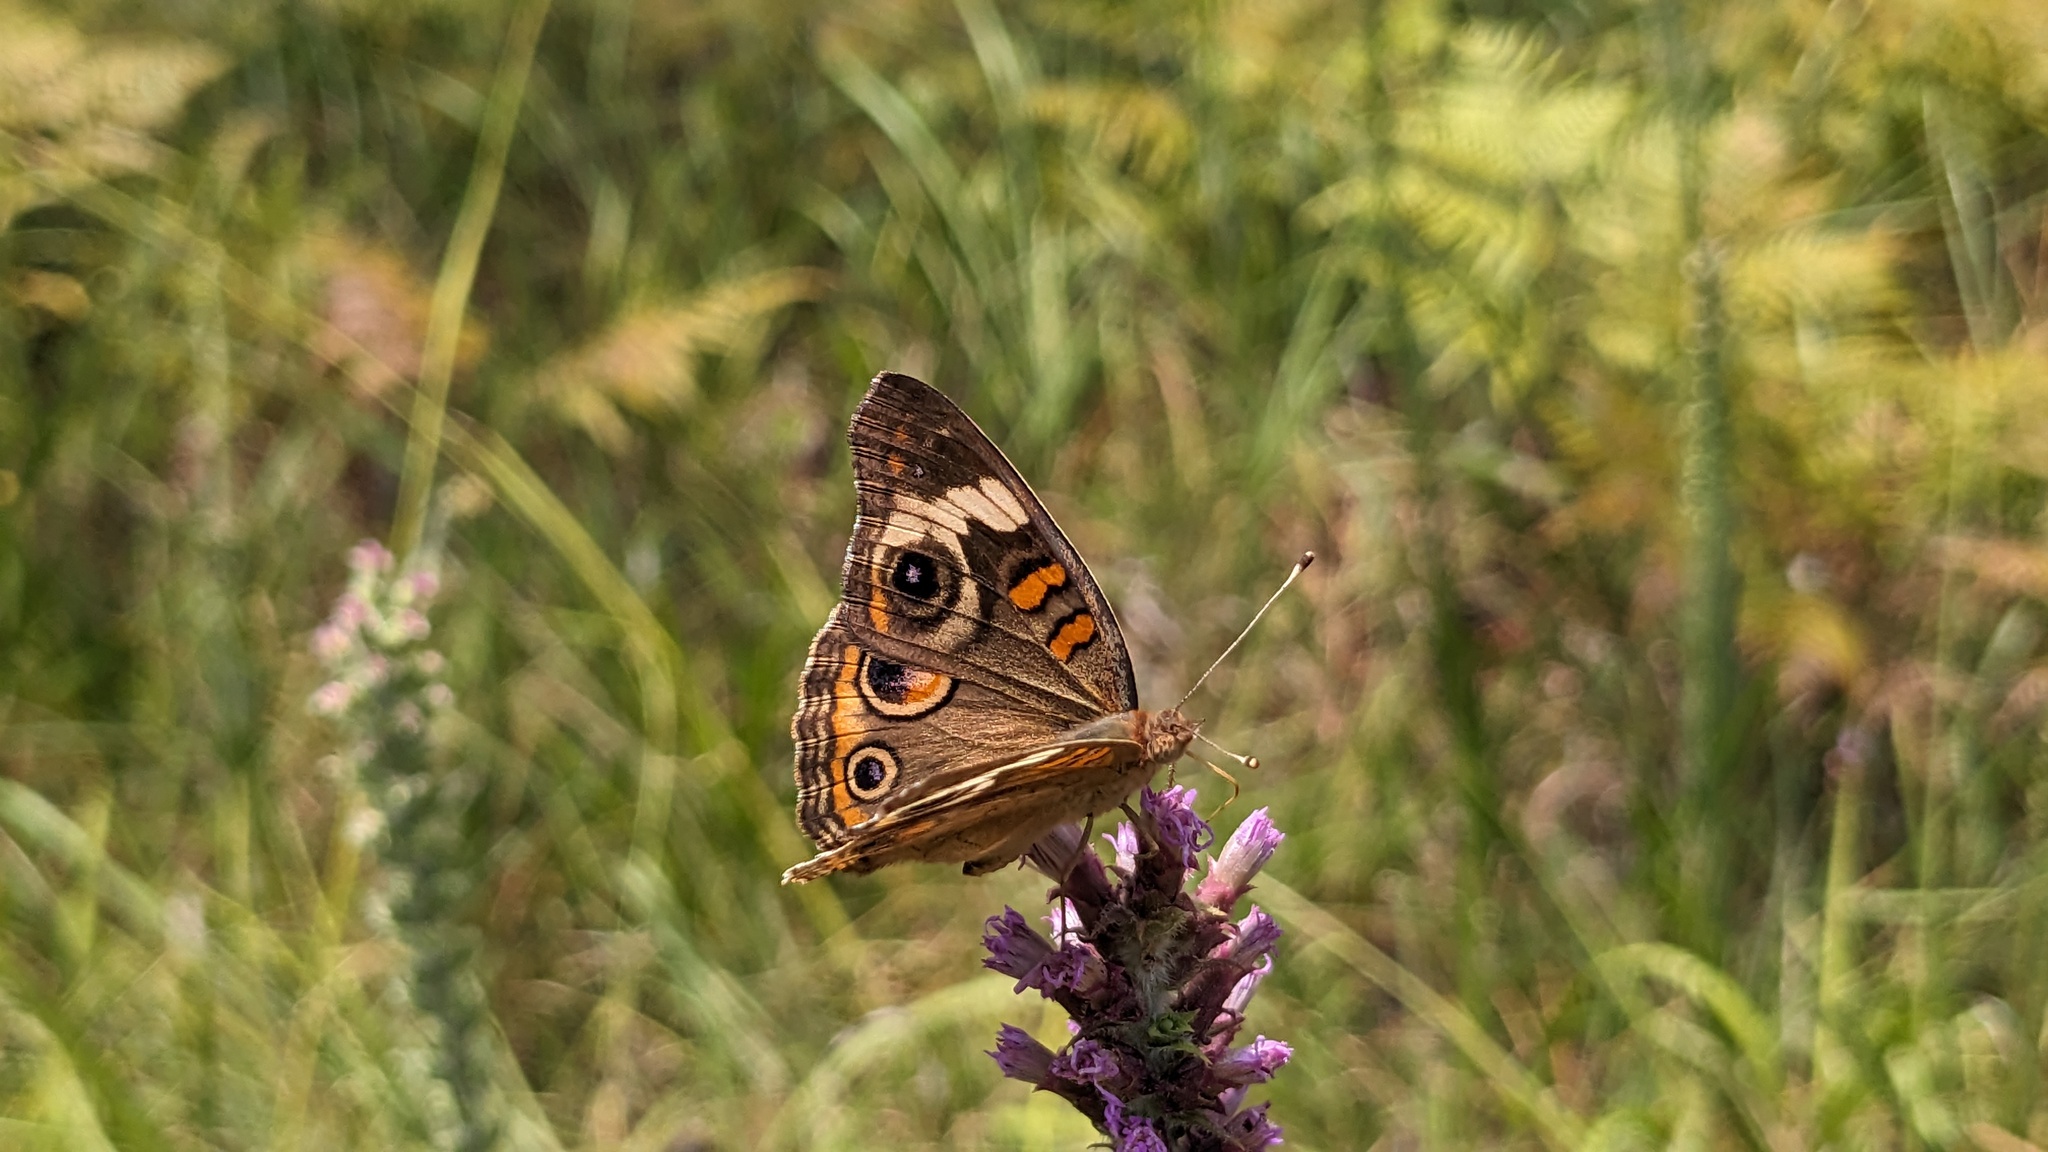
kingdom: Animalia
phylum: Arthropoda
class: Insecta
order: Lepidoptera
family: Nymphalidae
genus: Junonia
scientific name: Junonia coenia
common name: Common buckeye
